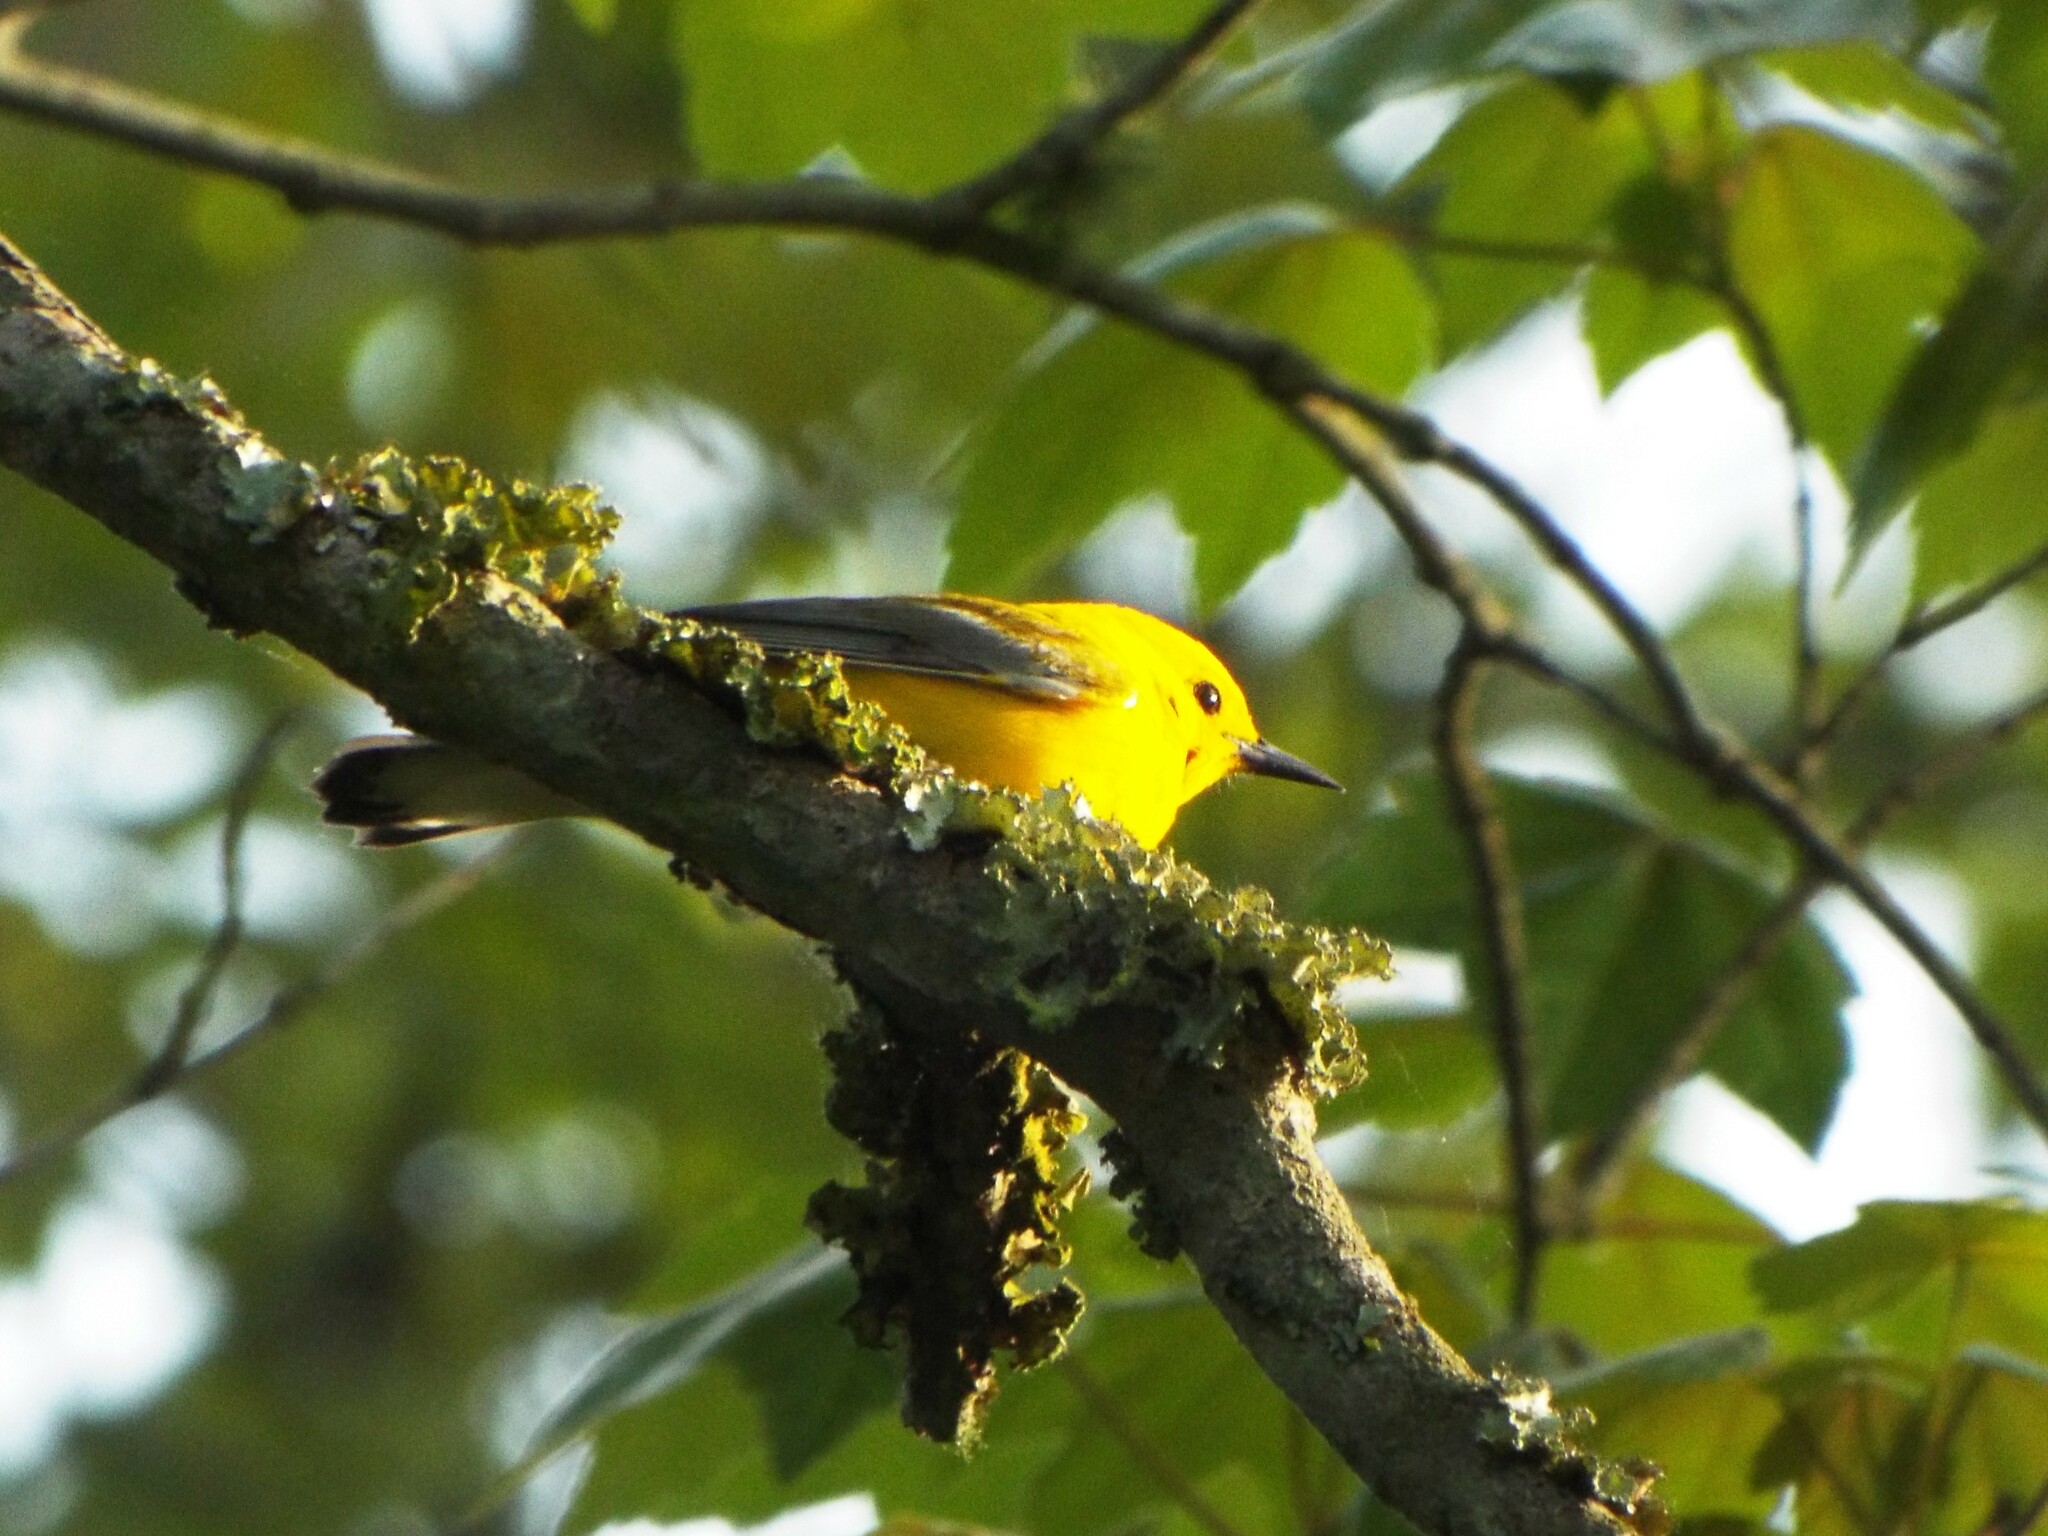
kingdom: Animalia
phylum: Chordata
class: Aves
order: Passeriformes
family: Parulidae
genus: Protonotaria
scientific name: Protonotaria citrea
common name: Prothonotary warbler
